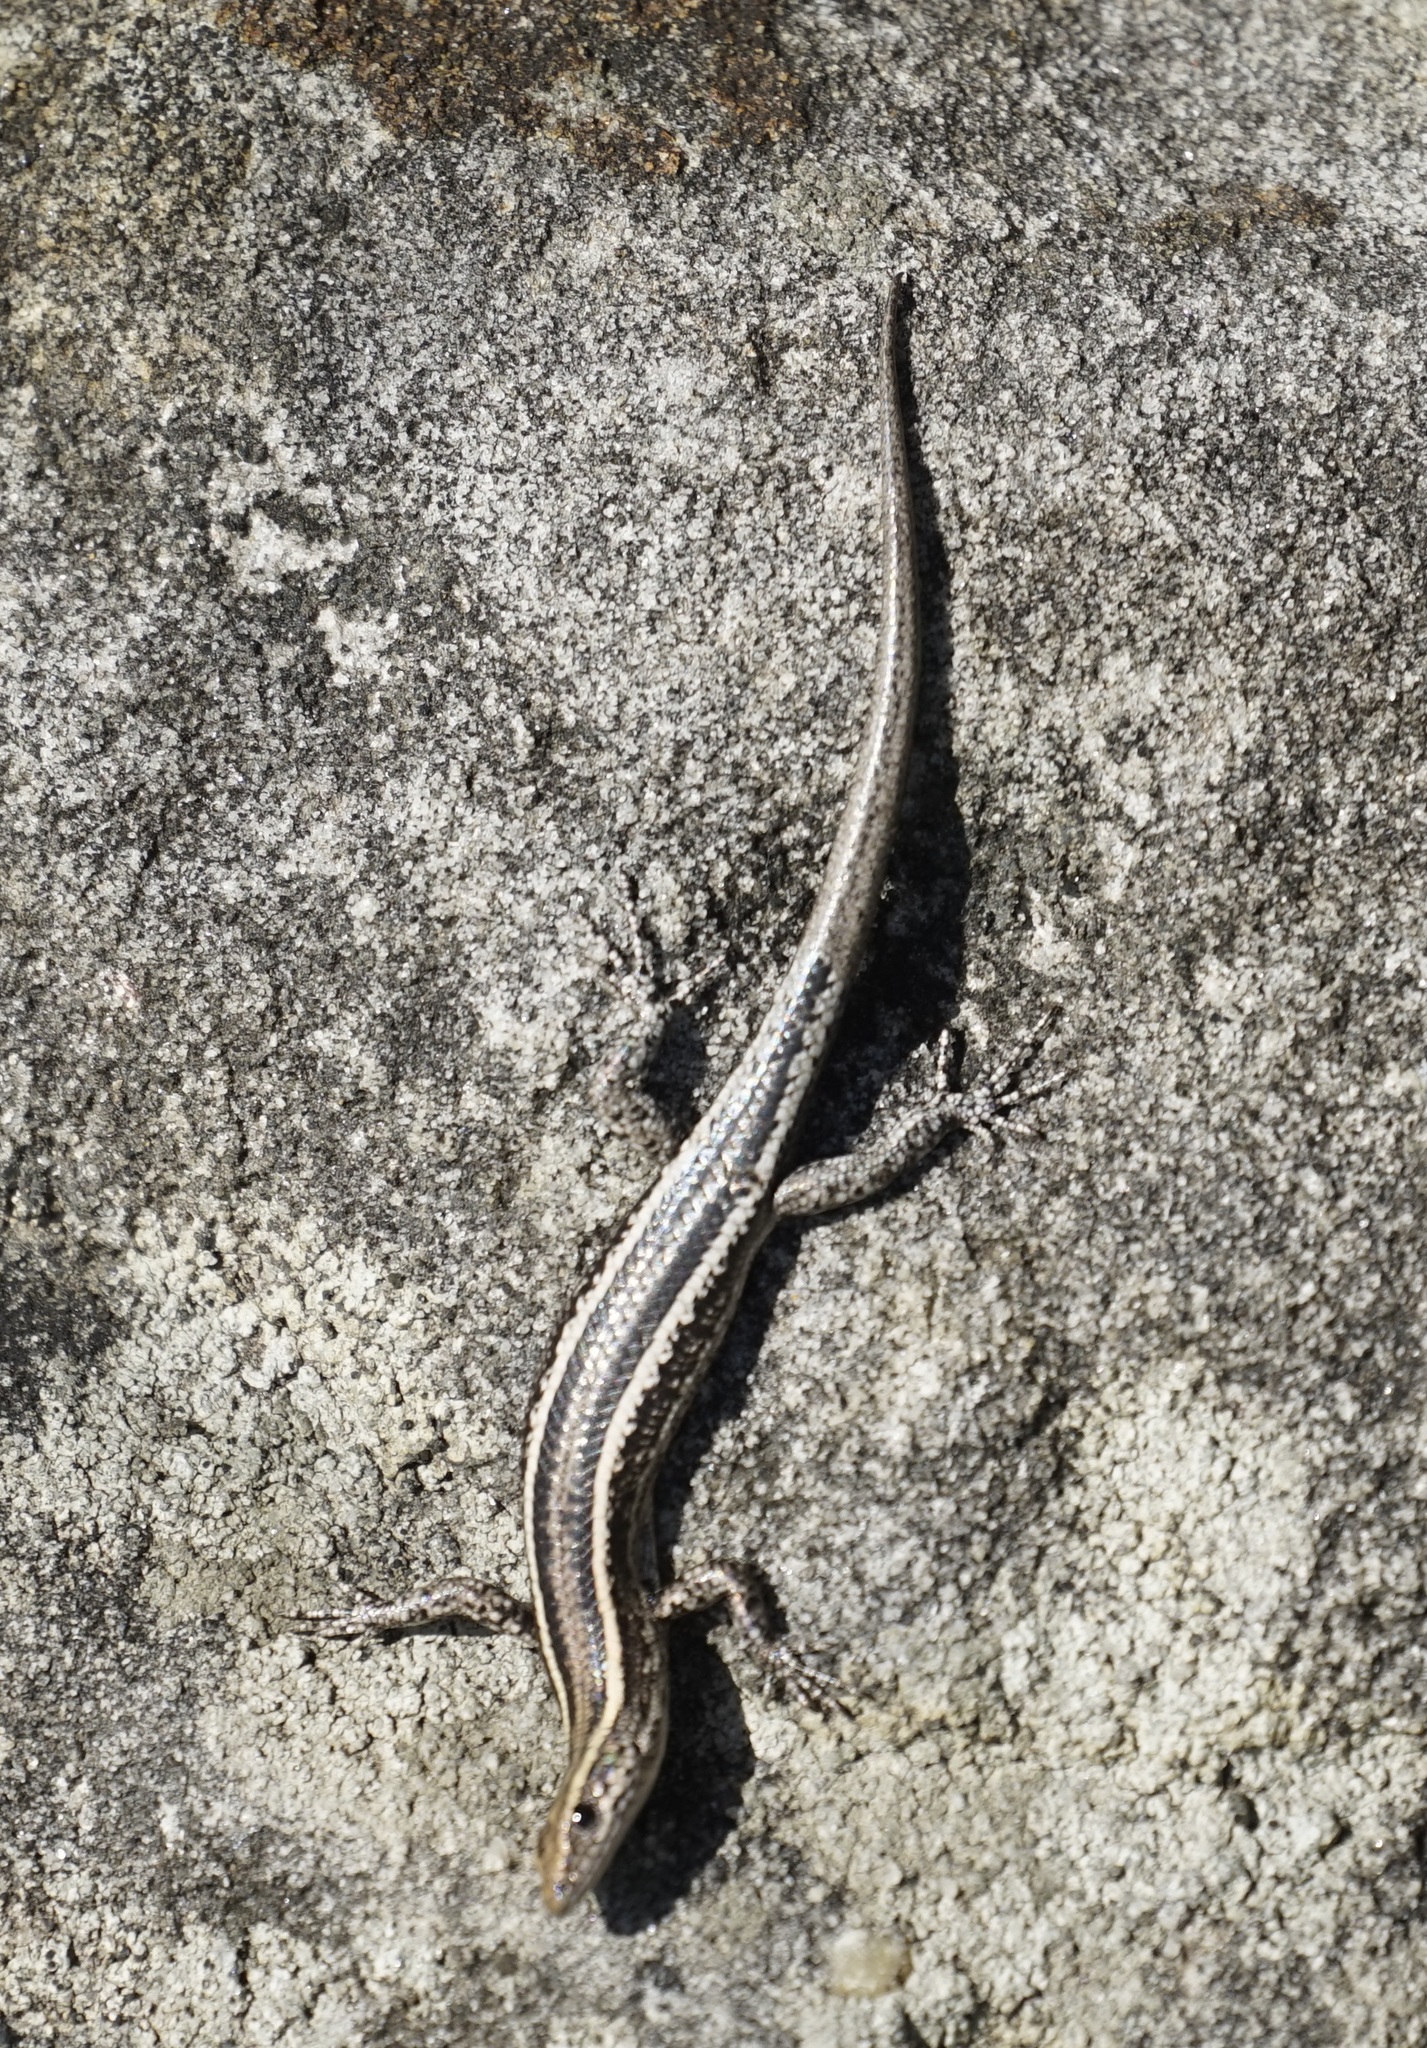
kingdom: Animalia
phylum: Chordata
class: Squamata
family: Scincidae
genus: Cryptoblepharus
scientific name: Cryptoblepharus pulcher
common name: Elegant snake-eyed skink
